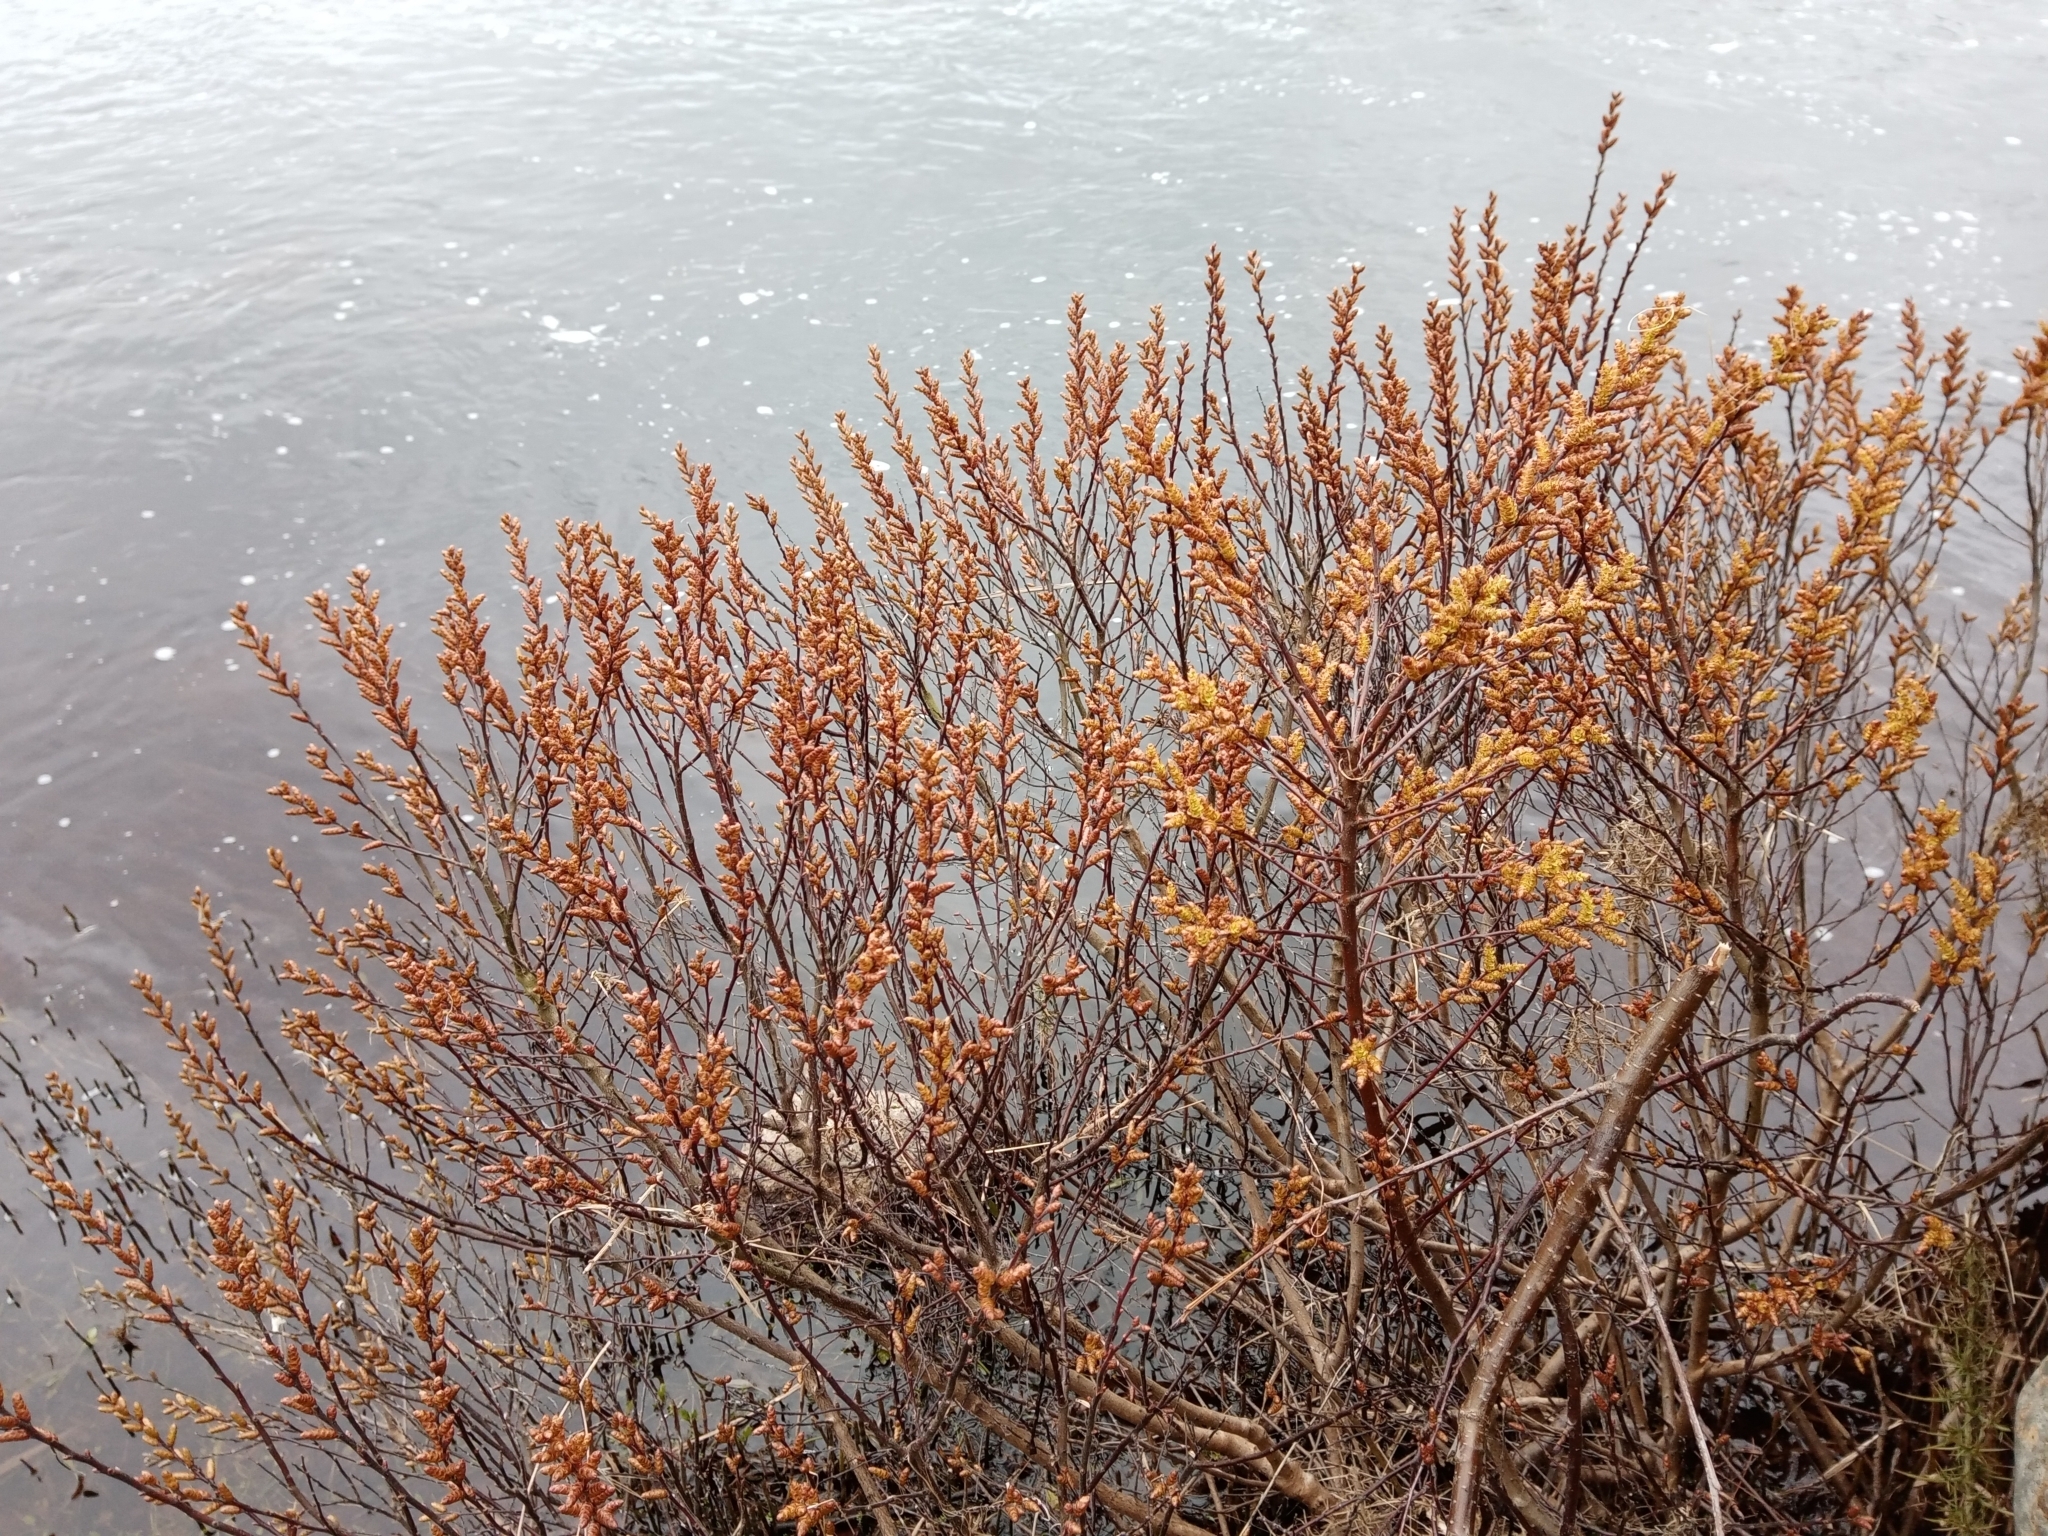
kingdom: Plantae
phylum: Tracheophyta
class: Magnoliopsida
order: Fagales
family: Myricaceae
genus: Myrica
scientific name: Myrica gale
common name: Sweet gale
